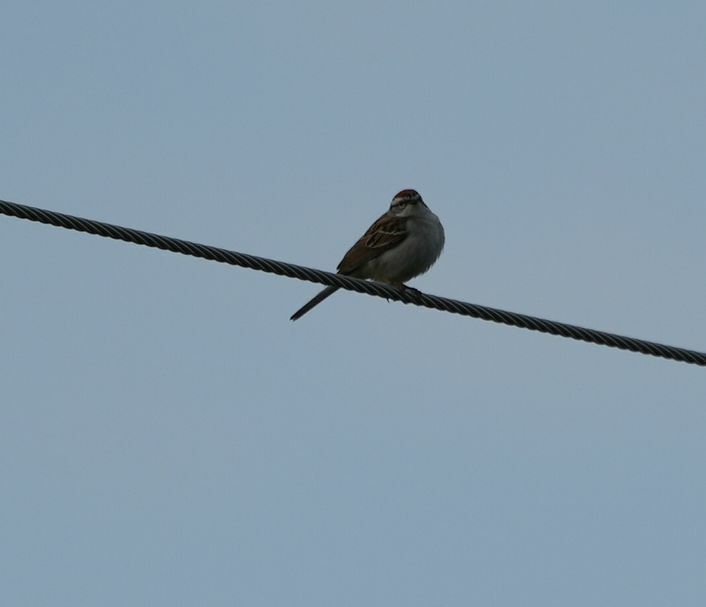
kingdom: Animalia
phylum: Chordata
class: Aves
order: Passeriformes
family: Passerellidae
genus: Spizella
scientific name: Spizella passerina
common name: Chipping sparrow
